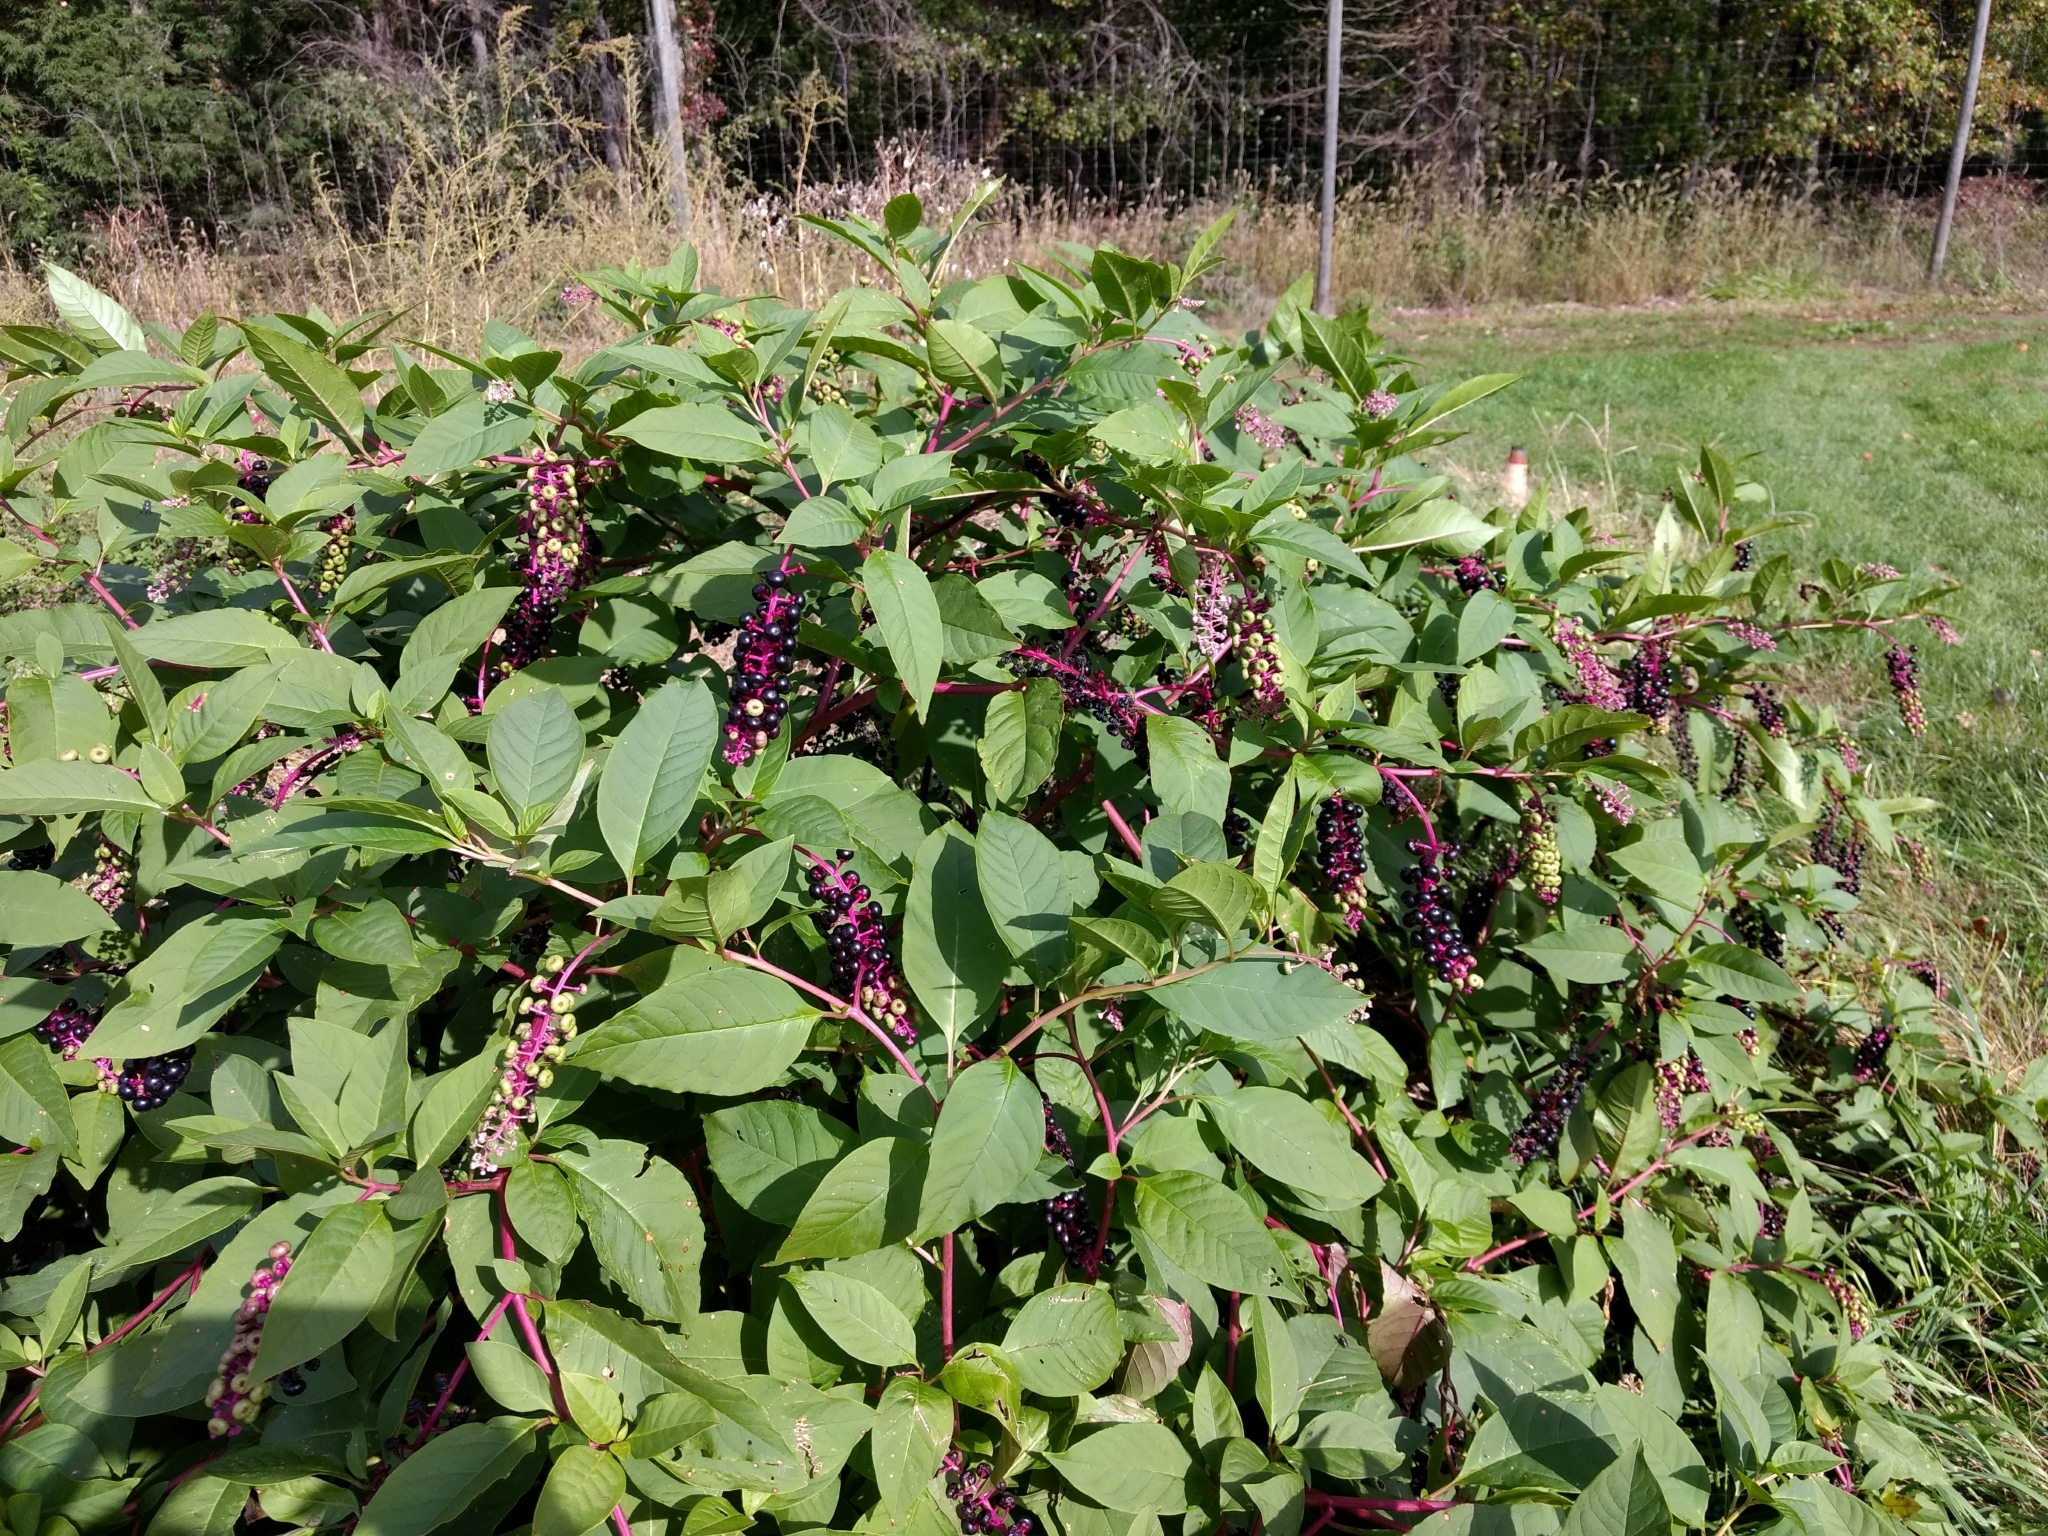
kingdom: Plantae
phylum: Tracheophyta
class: Magnoliopsida
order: Caryophyllales
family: Phytolaccaceae
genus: Phytolacca
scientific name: Phytolacca americana
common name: American pokeweed
